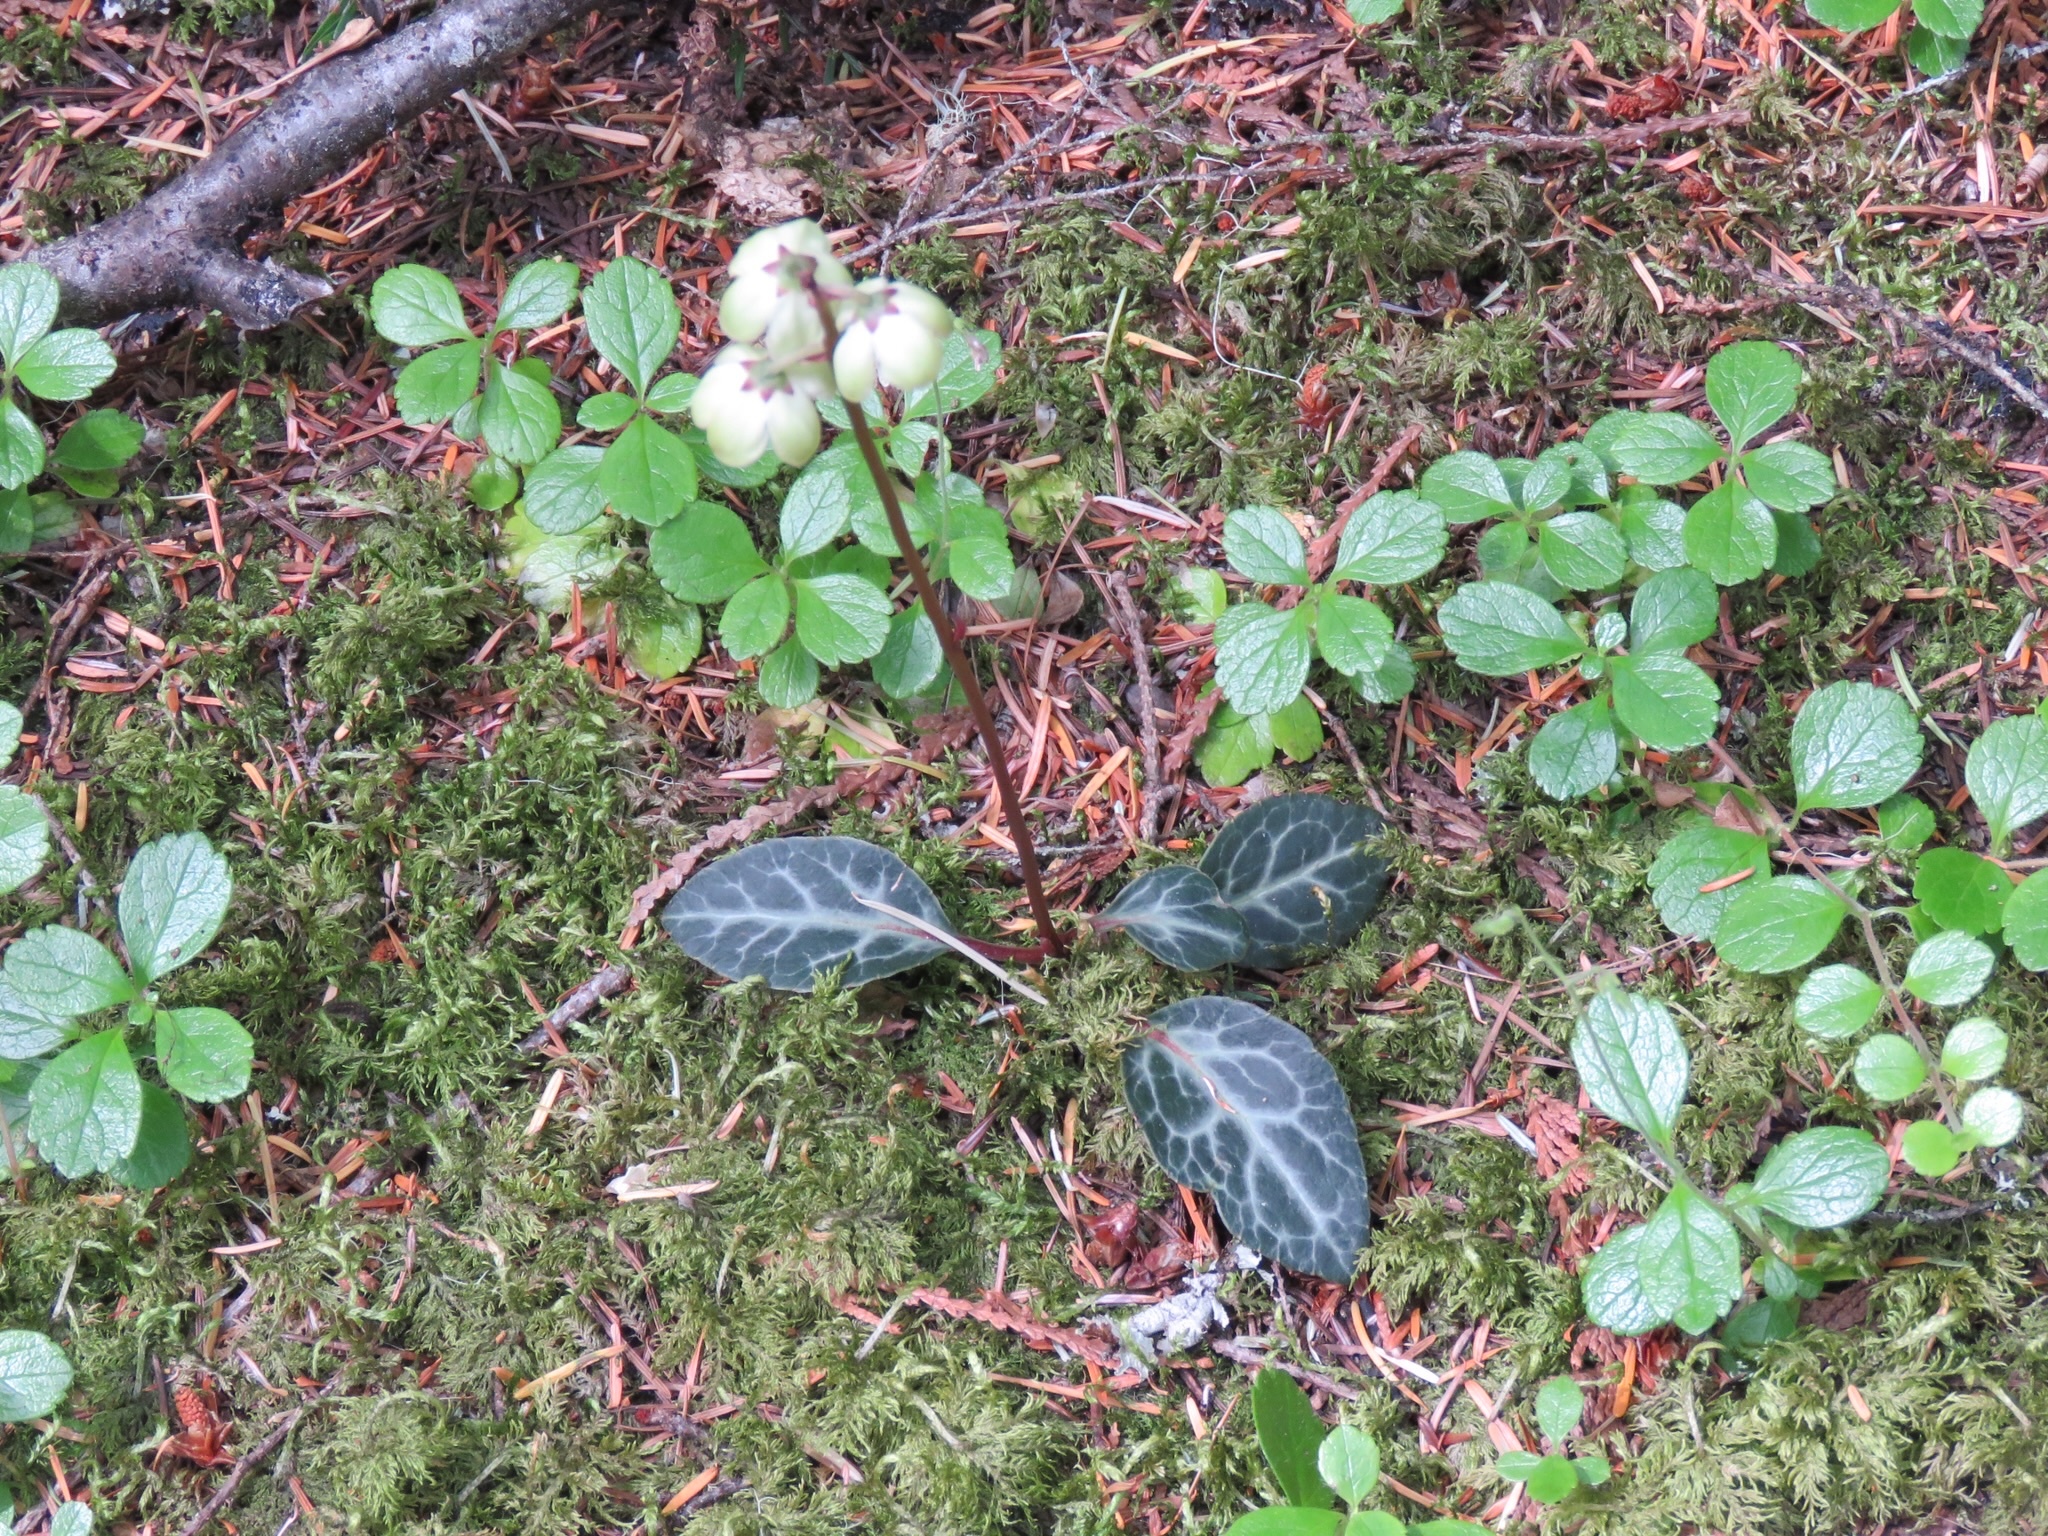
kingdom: Plantae
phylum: Tracheophyta
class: Magnoliopsida
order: Ericales
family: Ericaceae
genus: Pyrola
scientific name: Pyrola picta
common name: White-vein wintergreen
